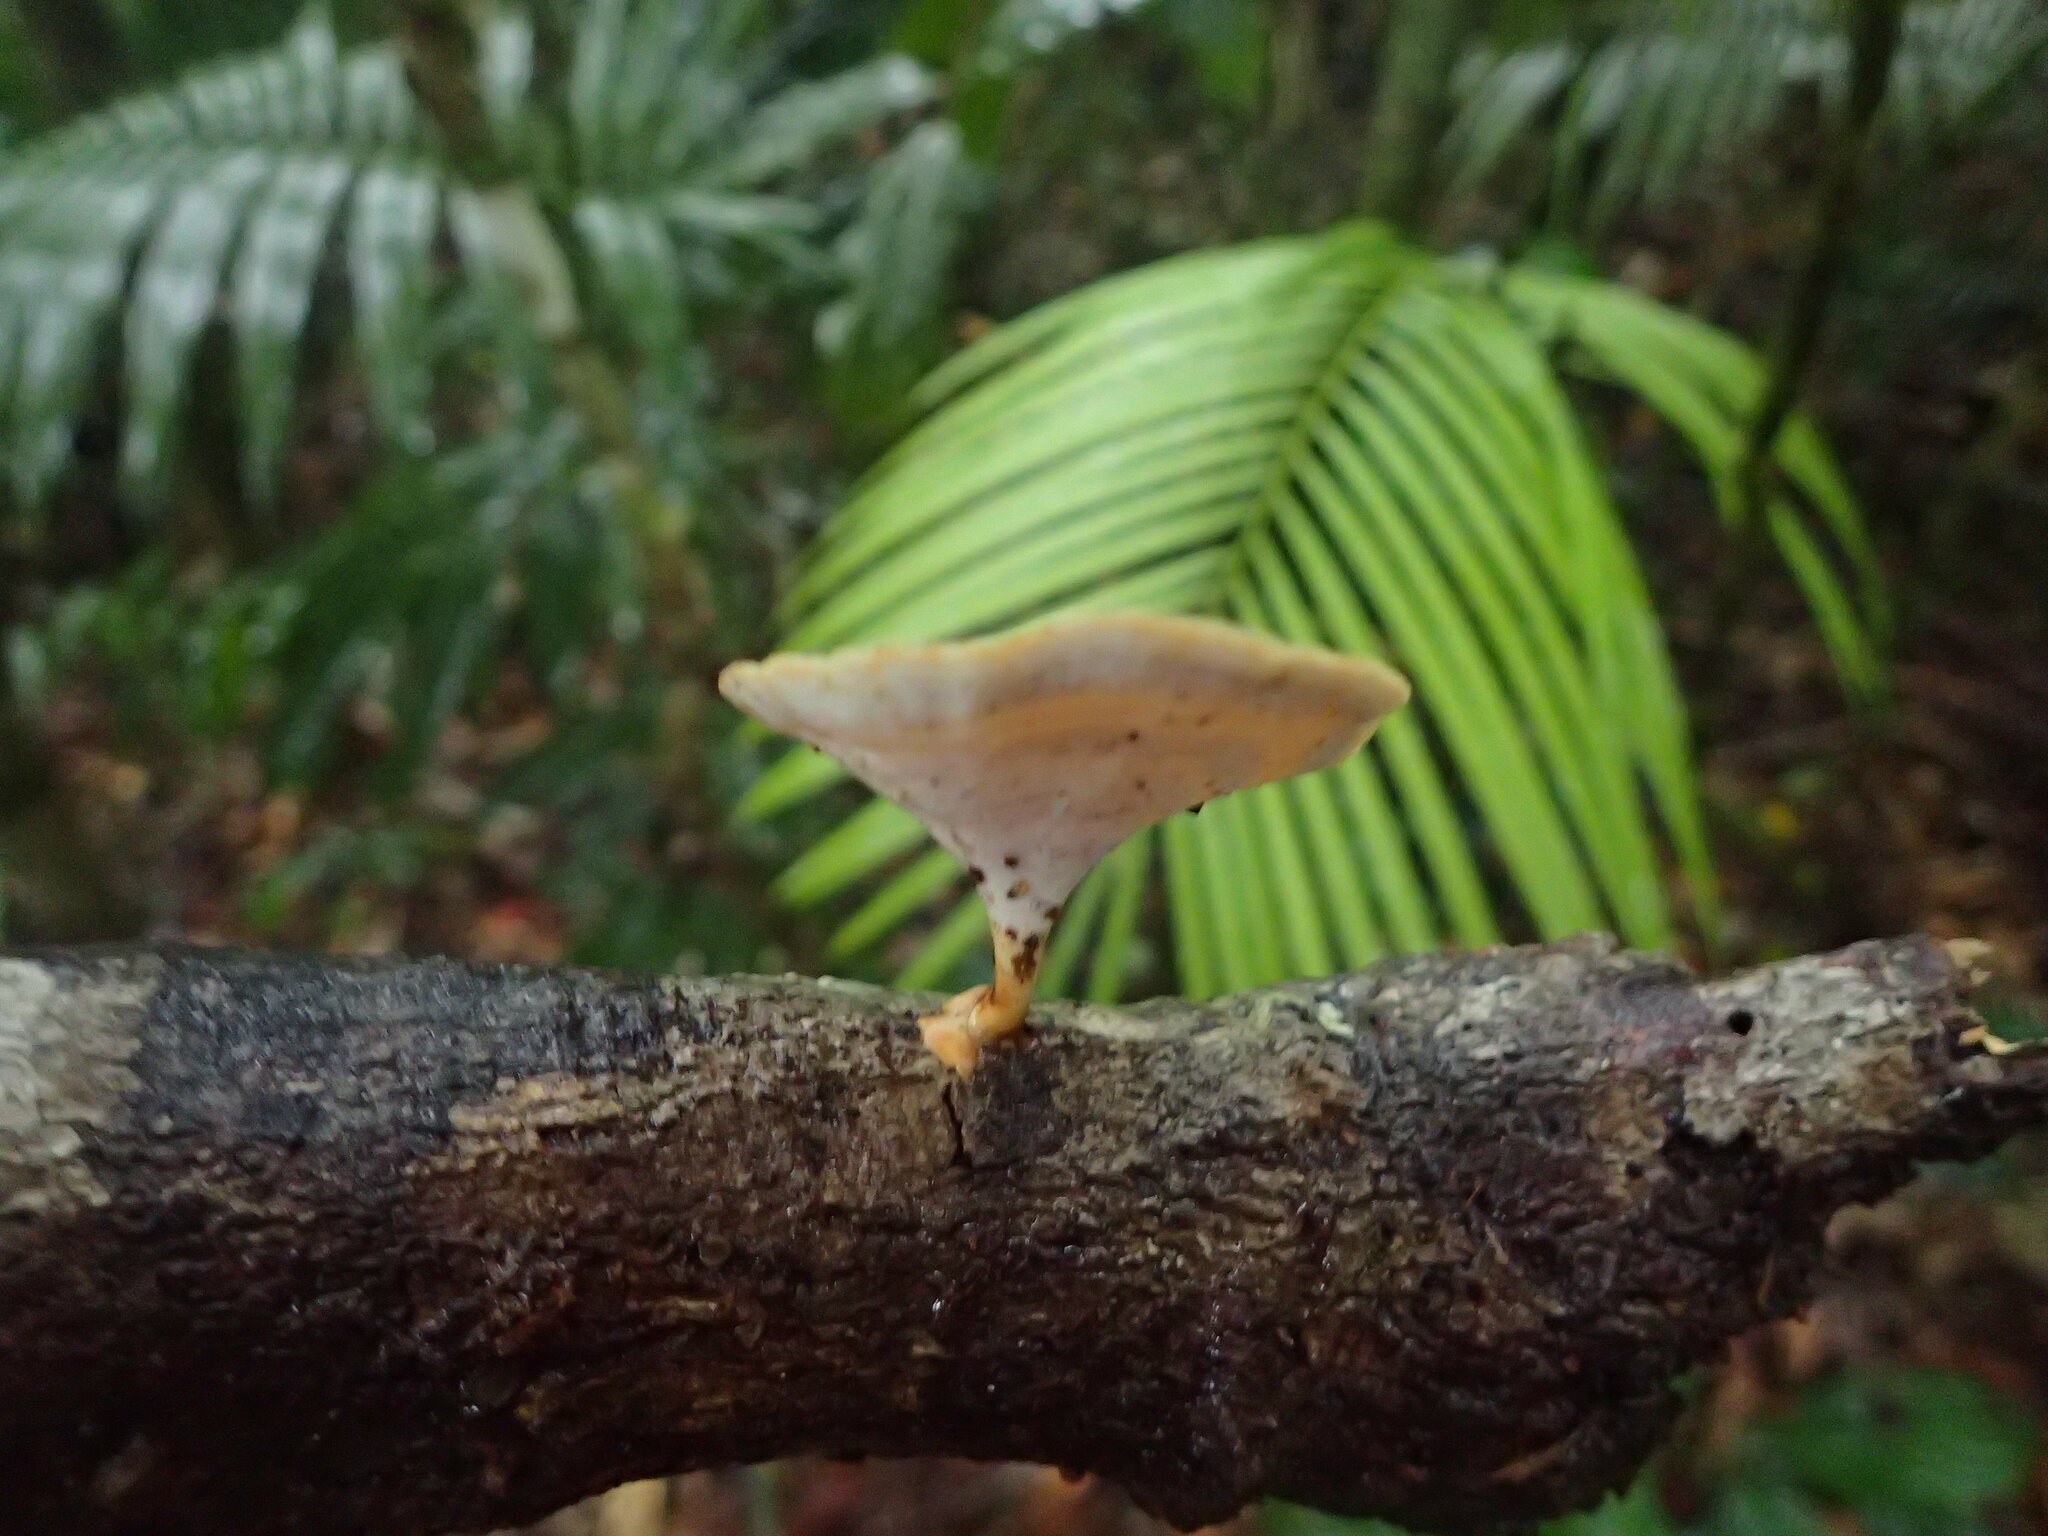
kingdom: Fungi
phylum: Basidiomycota
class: Agaricomycetes
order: Polyporales
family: Polyporaceae
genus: Microporus
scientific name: Microporus xanthopus
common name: Yellow-stemmed micropore
